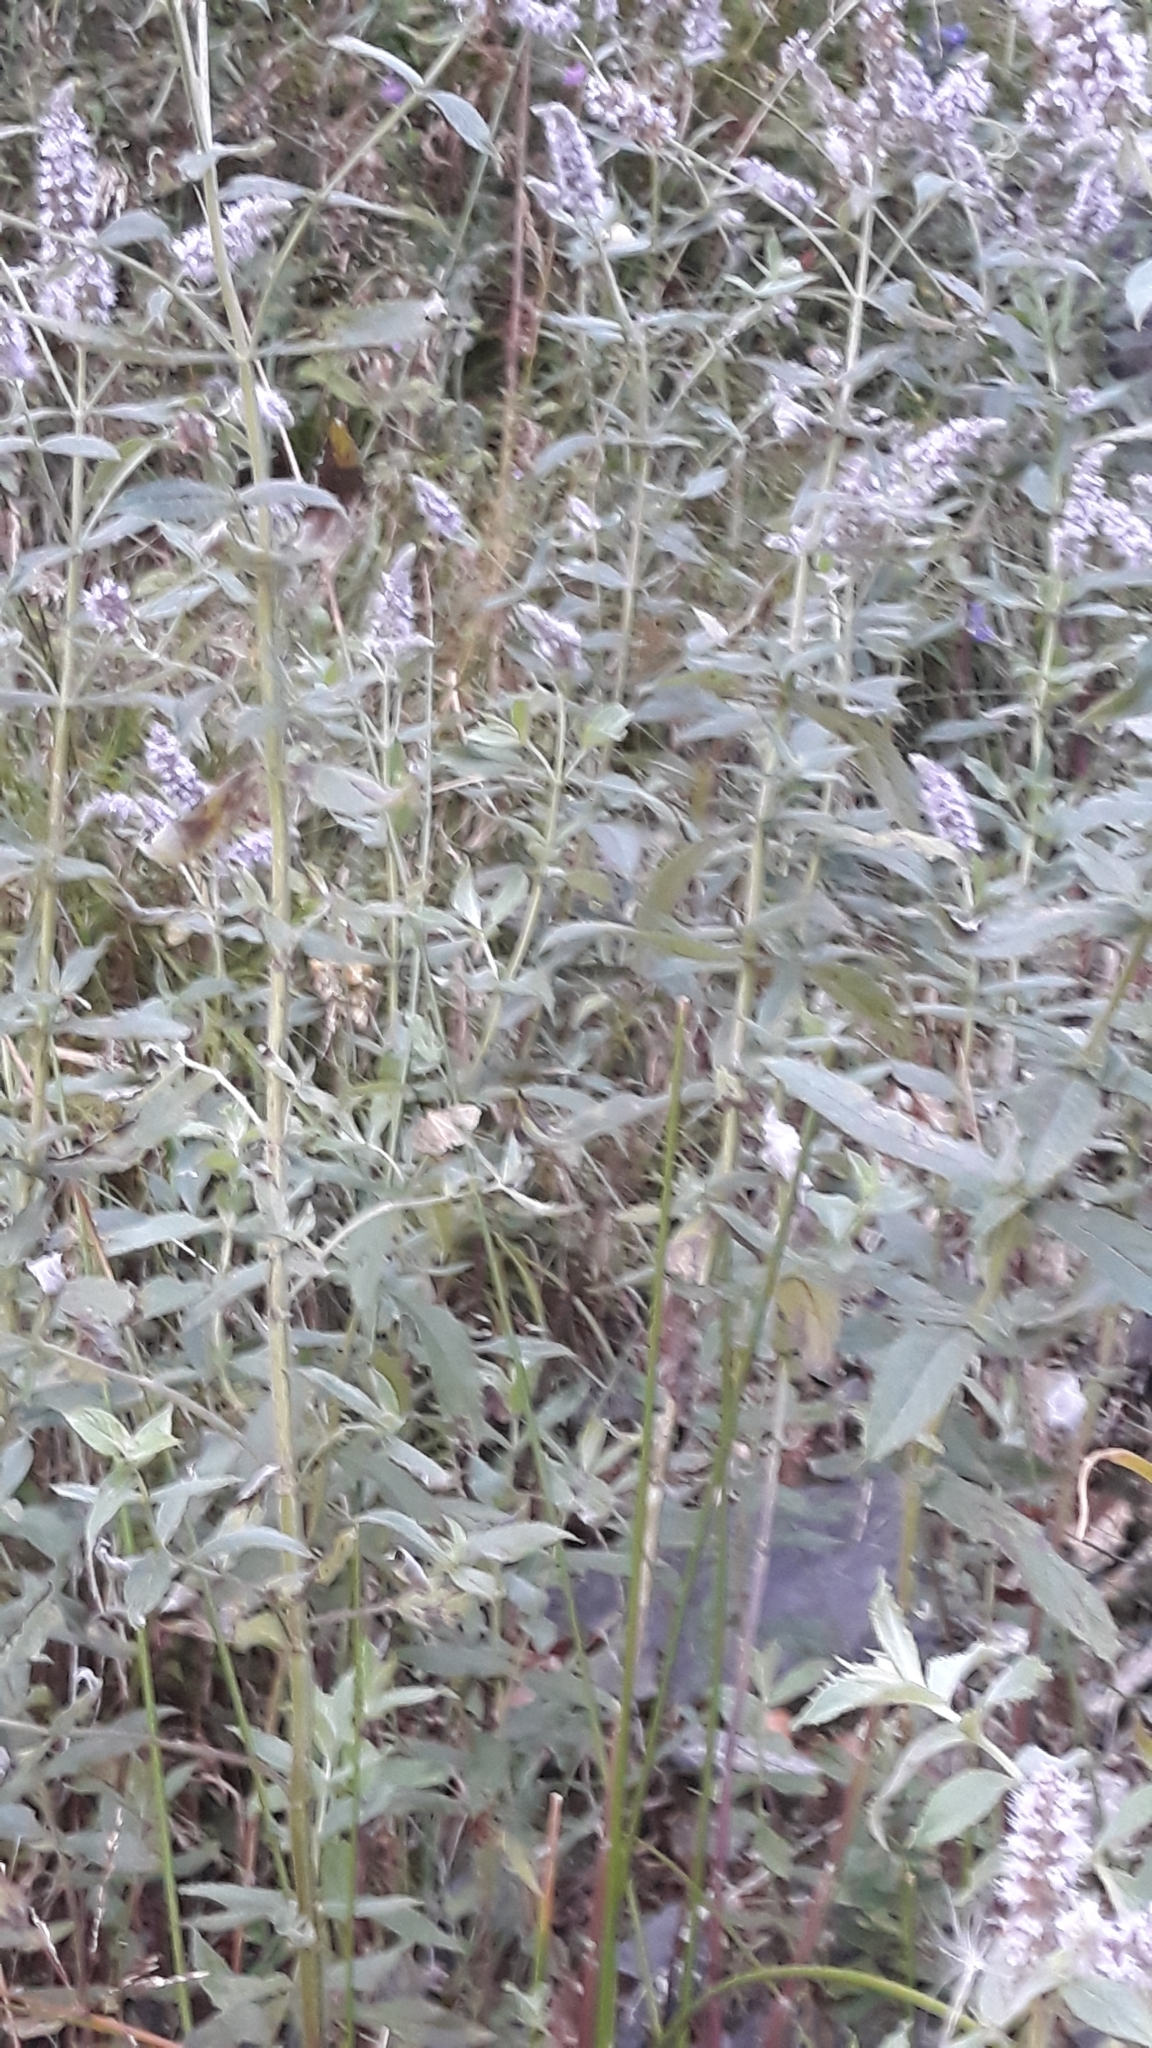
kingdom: Plantae
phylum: Tracheophyta
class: Magnoliopsida
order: Lamiales
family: Lamiaceae
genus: Mentha
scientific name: Mentha longifolia
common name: Horse mint
